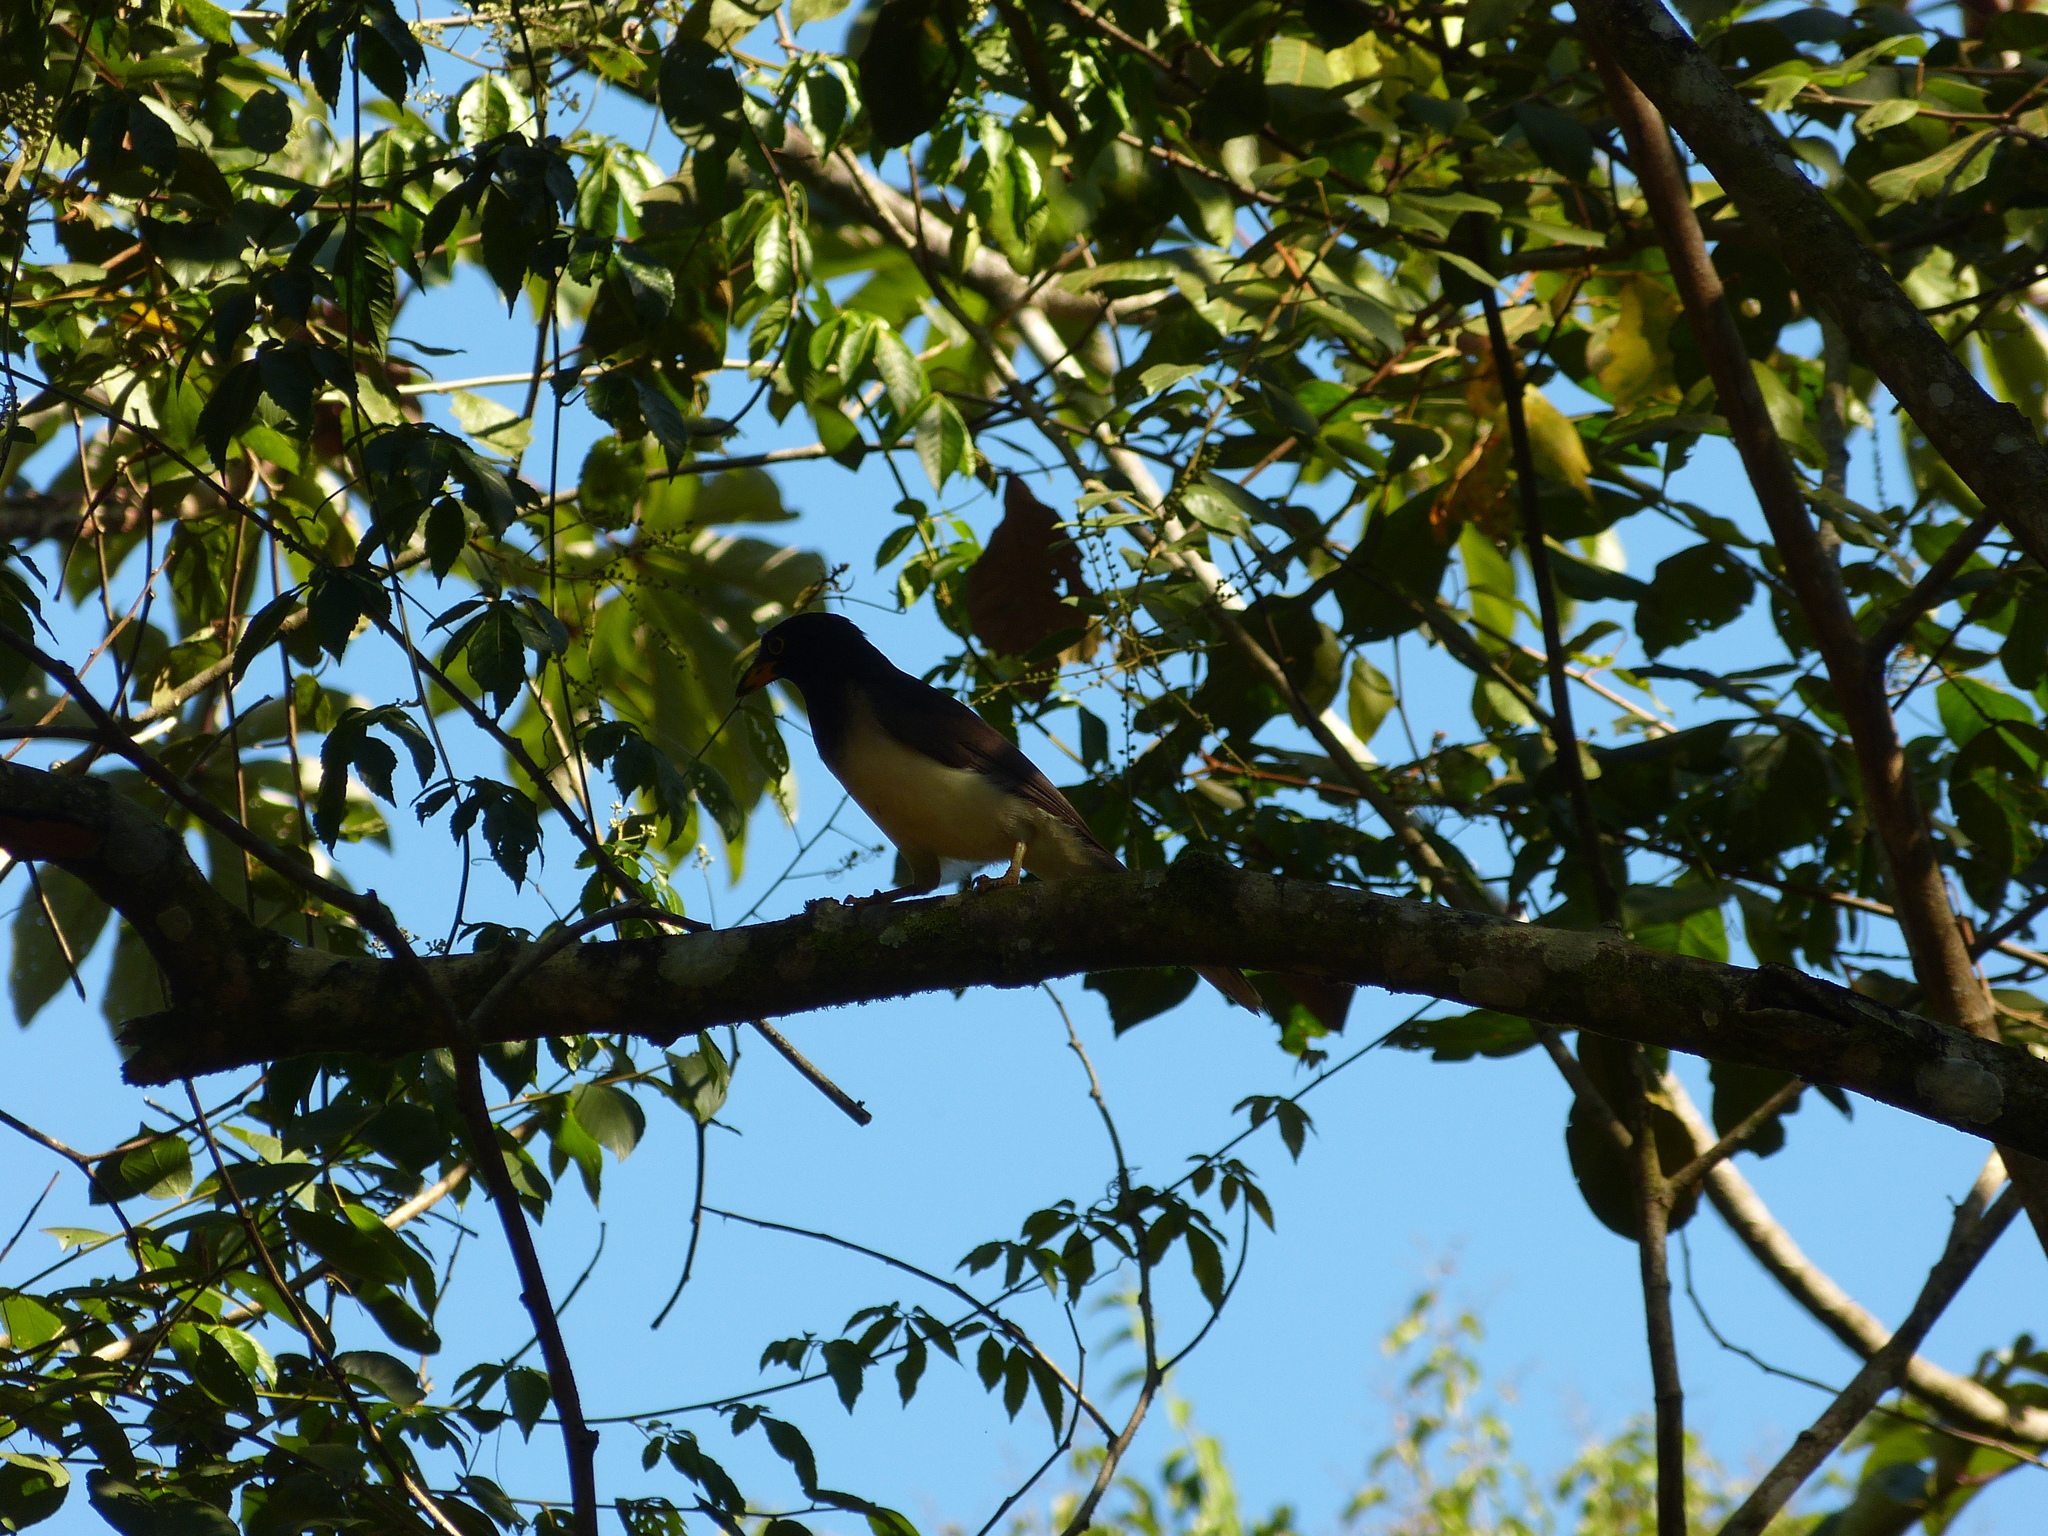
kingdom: Animalia
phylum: Chordata
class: Aves
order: Passeriformes
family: Corvidae
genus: Psilorhinus
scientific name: Psilorhinus morio
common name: Brown jay
